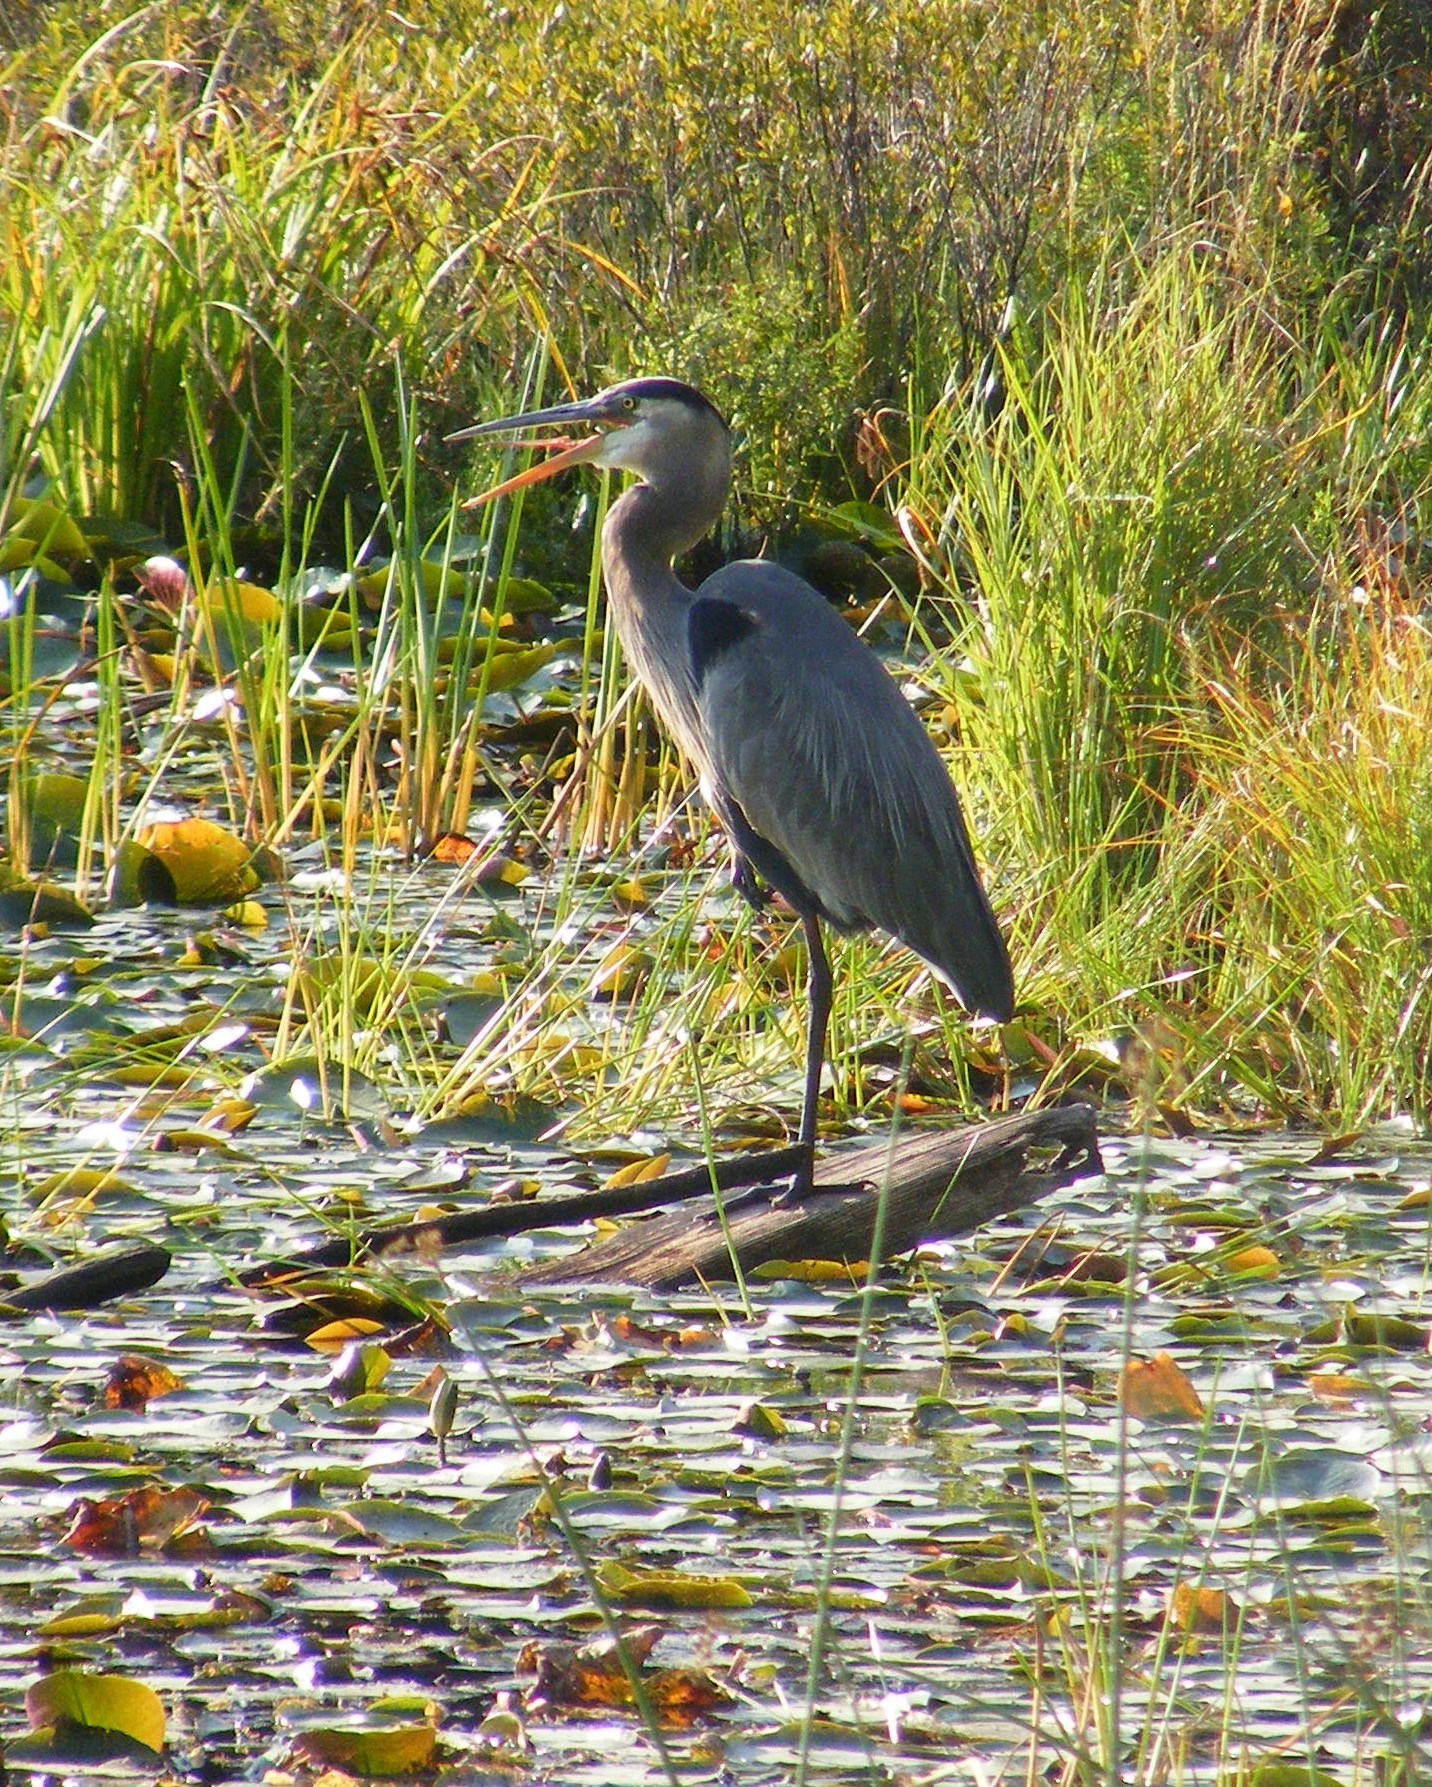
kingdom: Animalia
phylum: Chordata
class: Aves
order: Pelecaniformes
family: Ardeidae
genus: Ardea
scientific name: Ardea herodias
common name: Great blue heron
